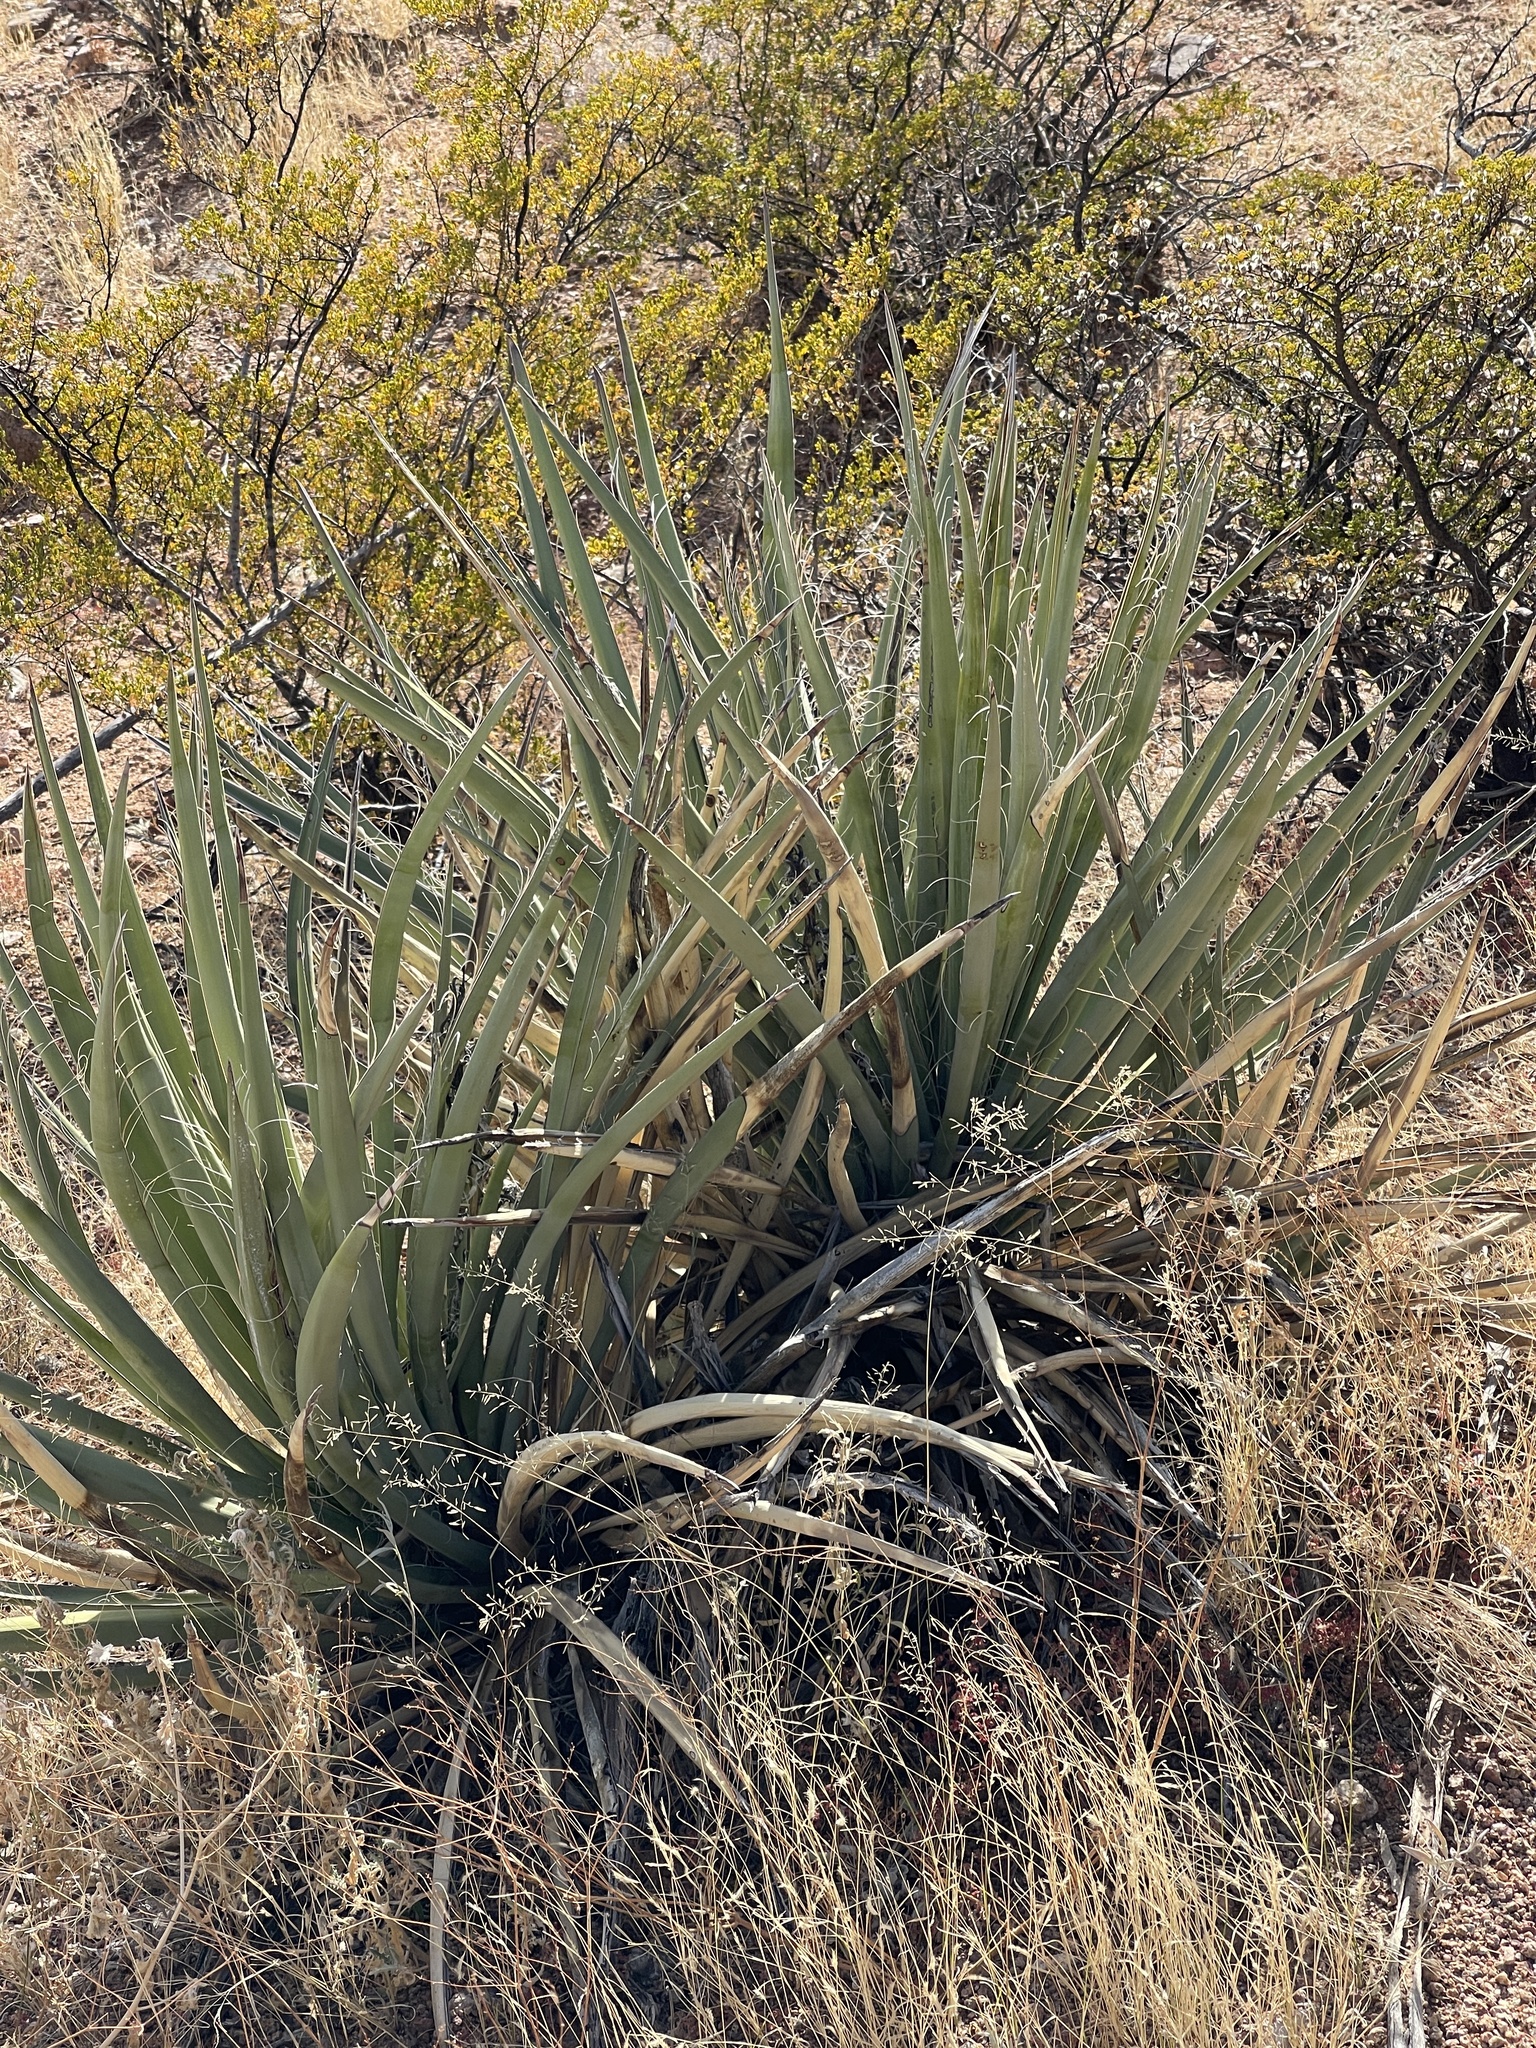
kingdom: Plantae
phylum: Tracheophyta
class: Liliopsida
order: Asparagales
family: Asparagaceae
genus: Yucca
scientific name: Yucca baccata
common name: Banana yucca
